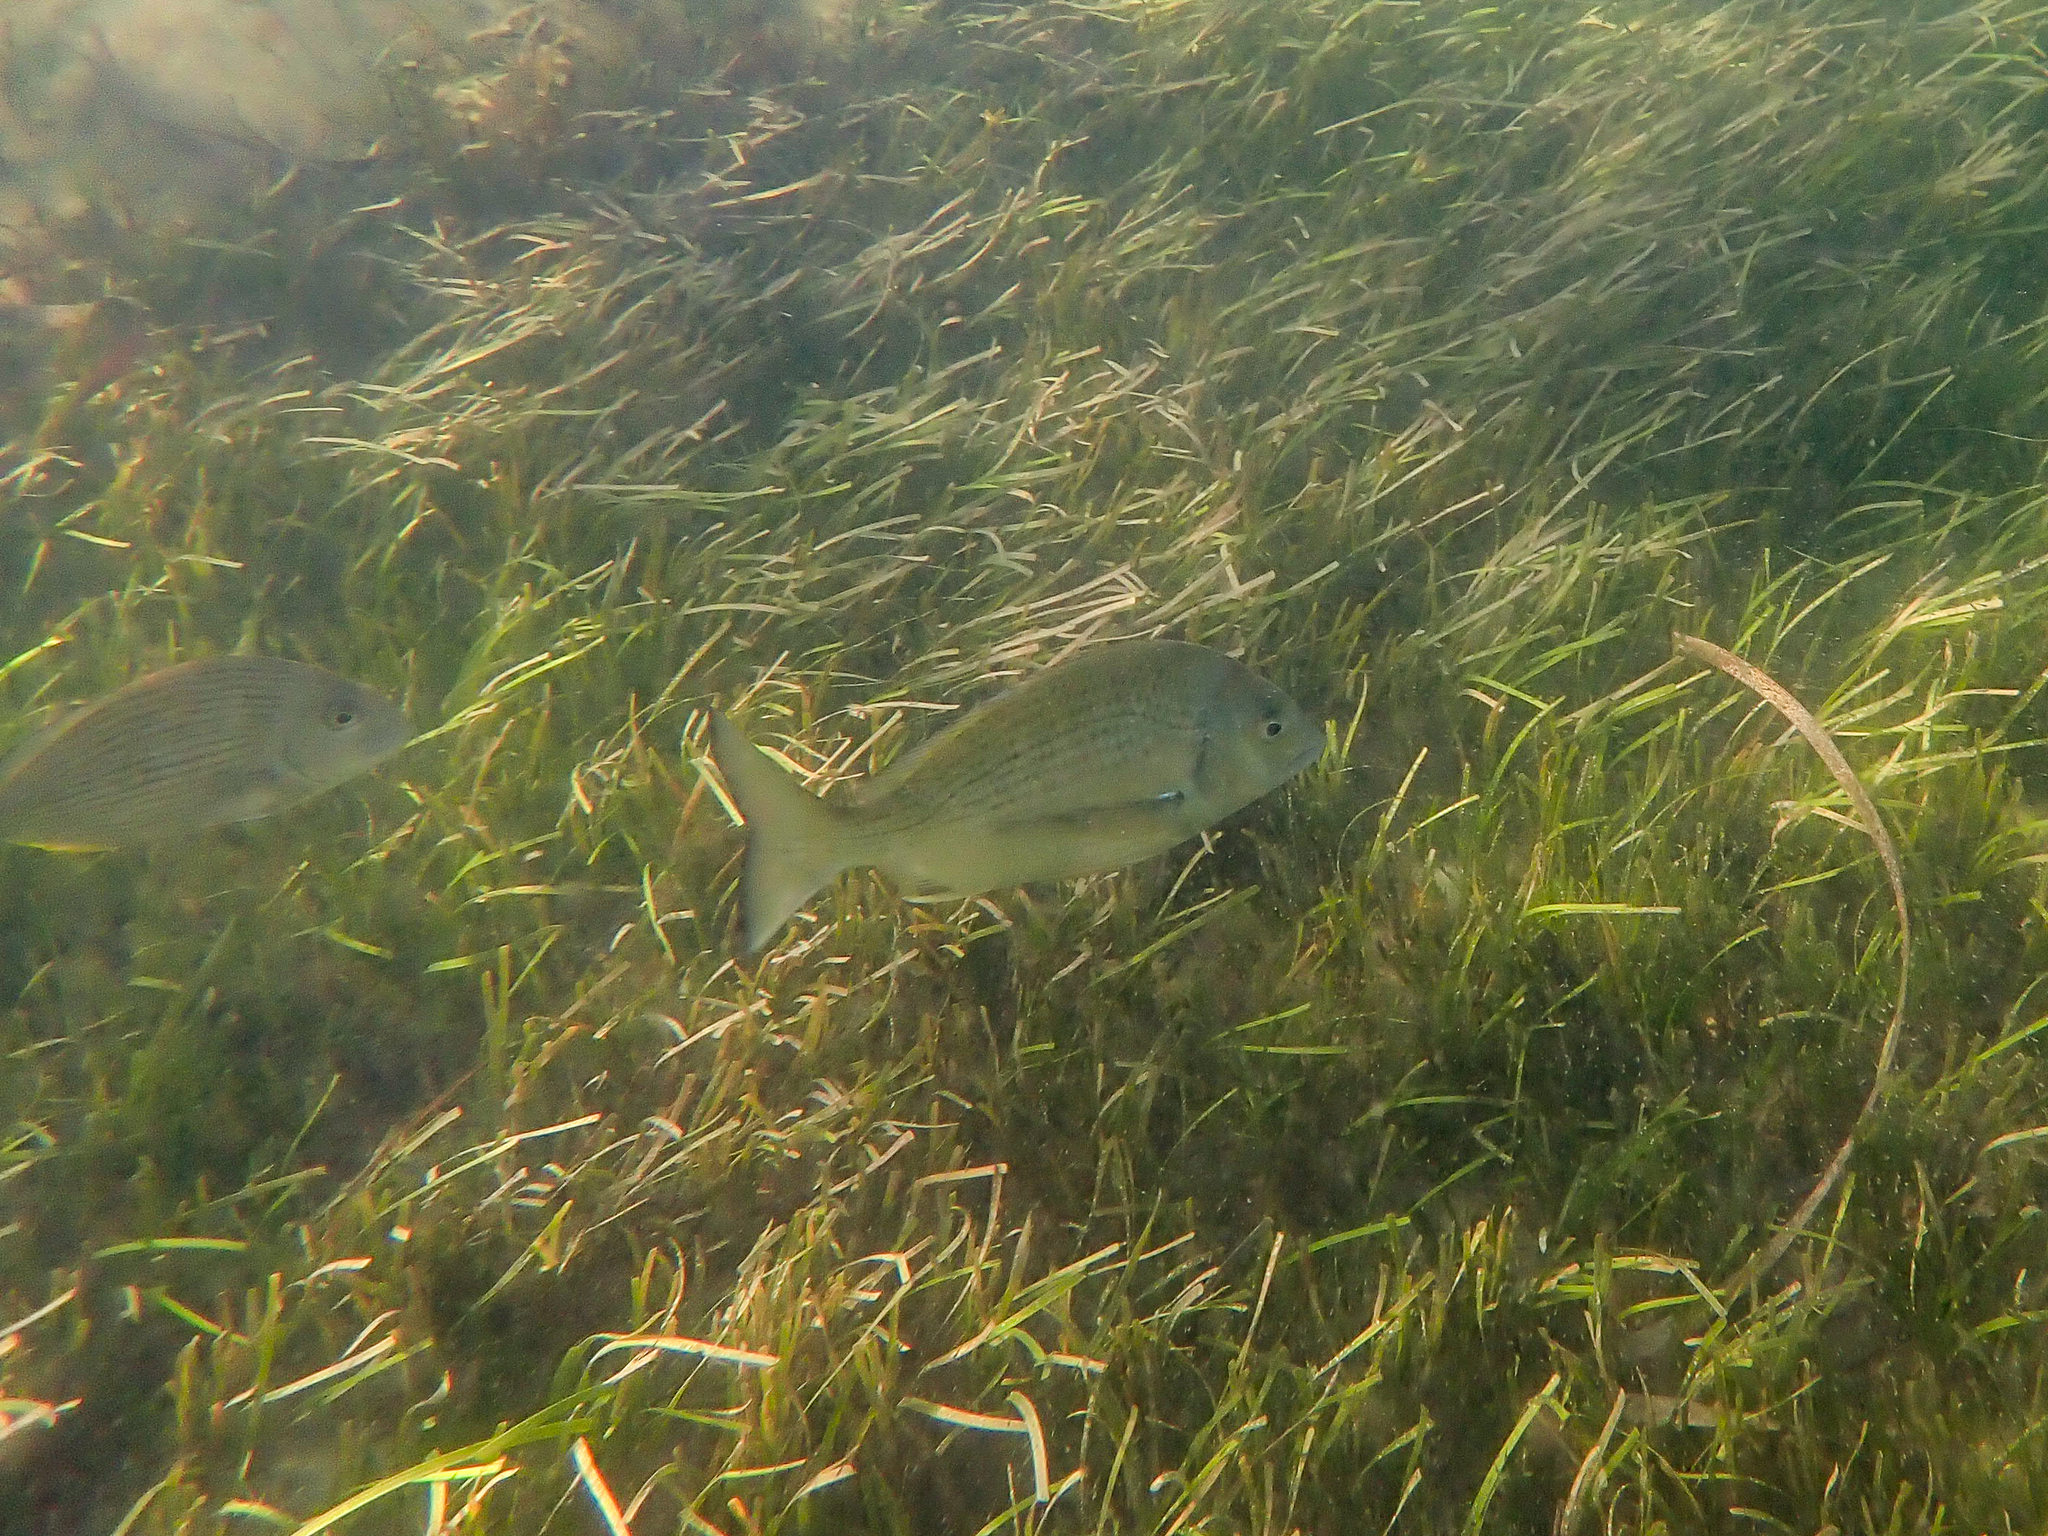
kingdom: Animalia
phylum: Chordata
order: Perciformes
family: Sparidae
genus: Acanthopagrus
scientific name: Acanthopagrus australis
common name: Surf bream
